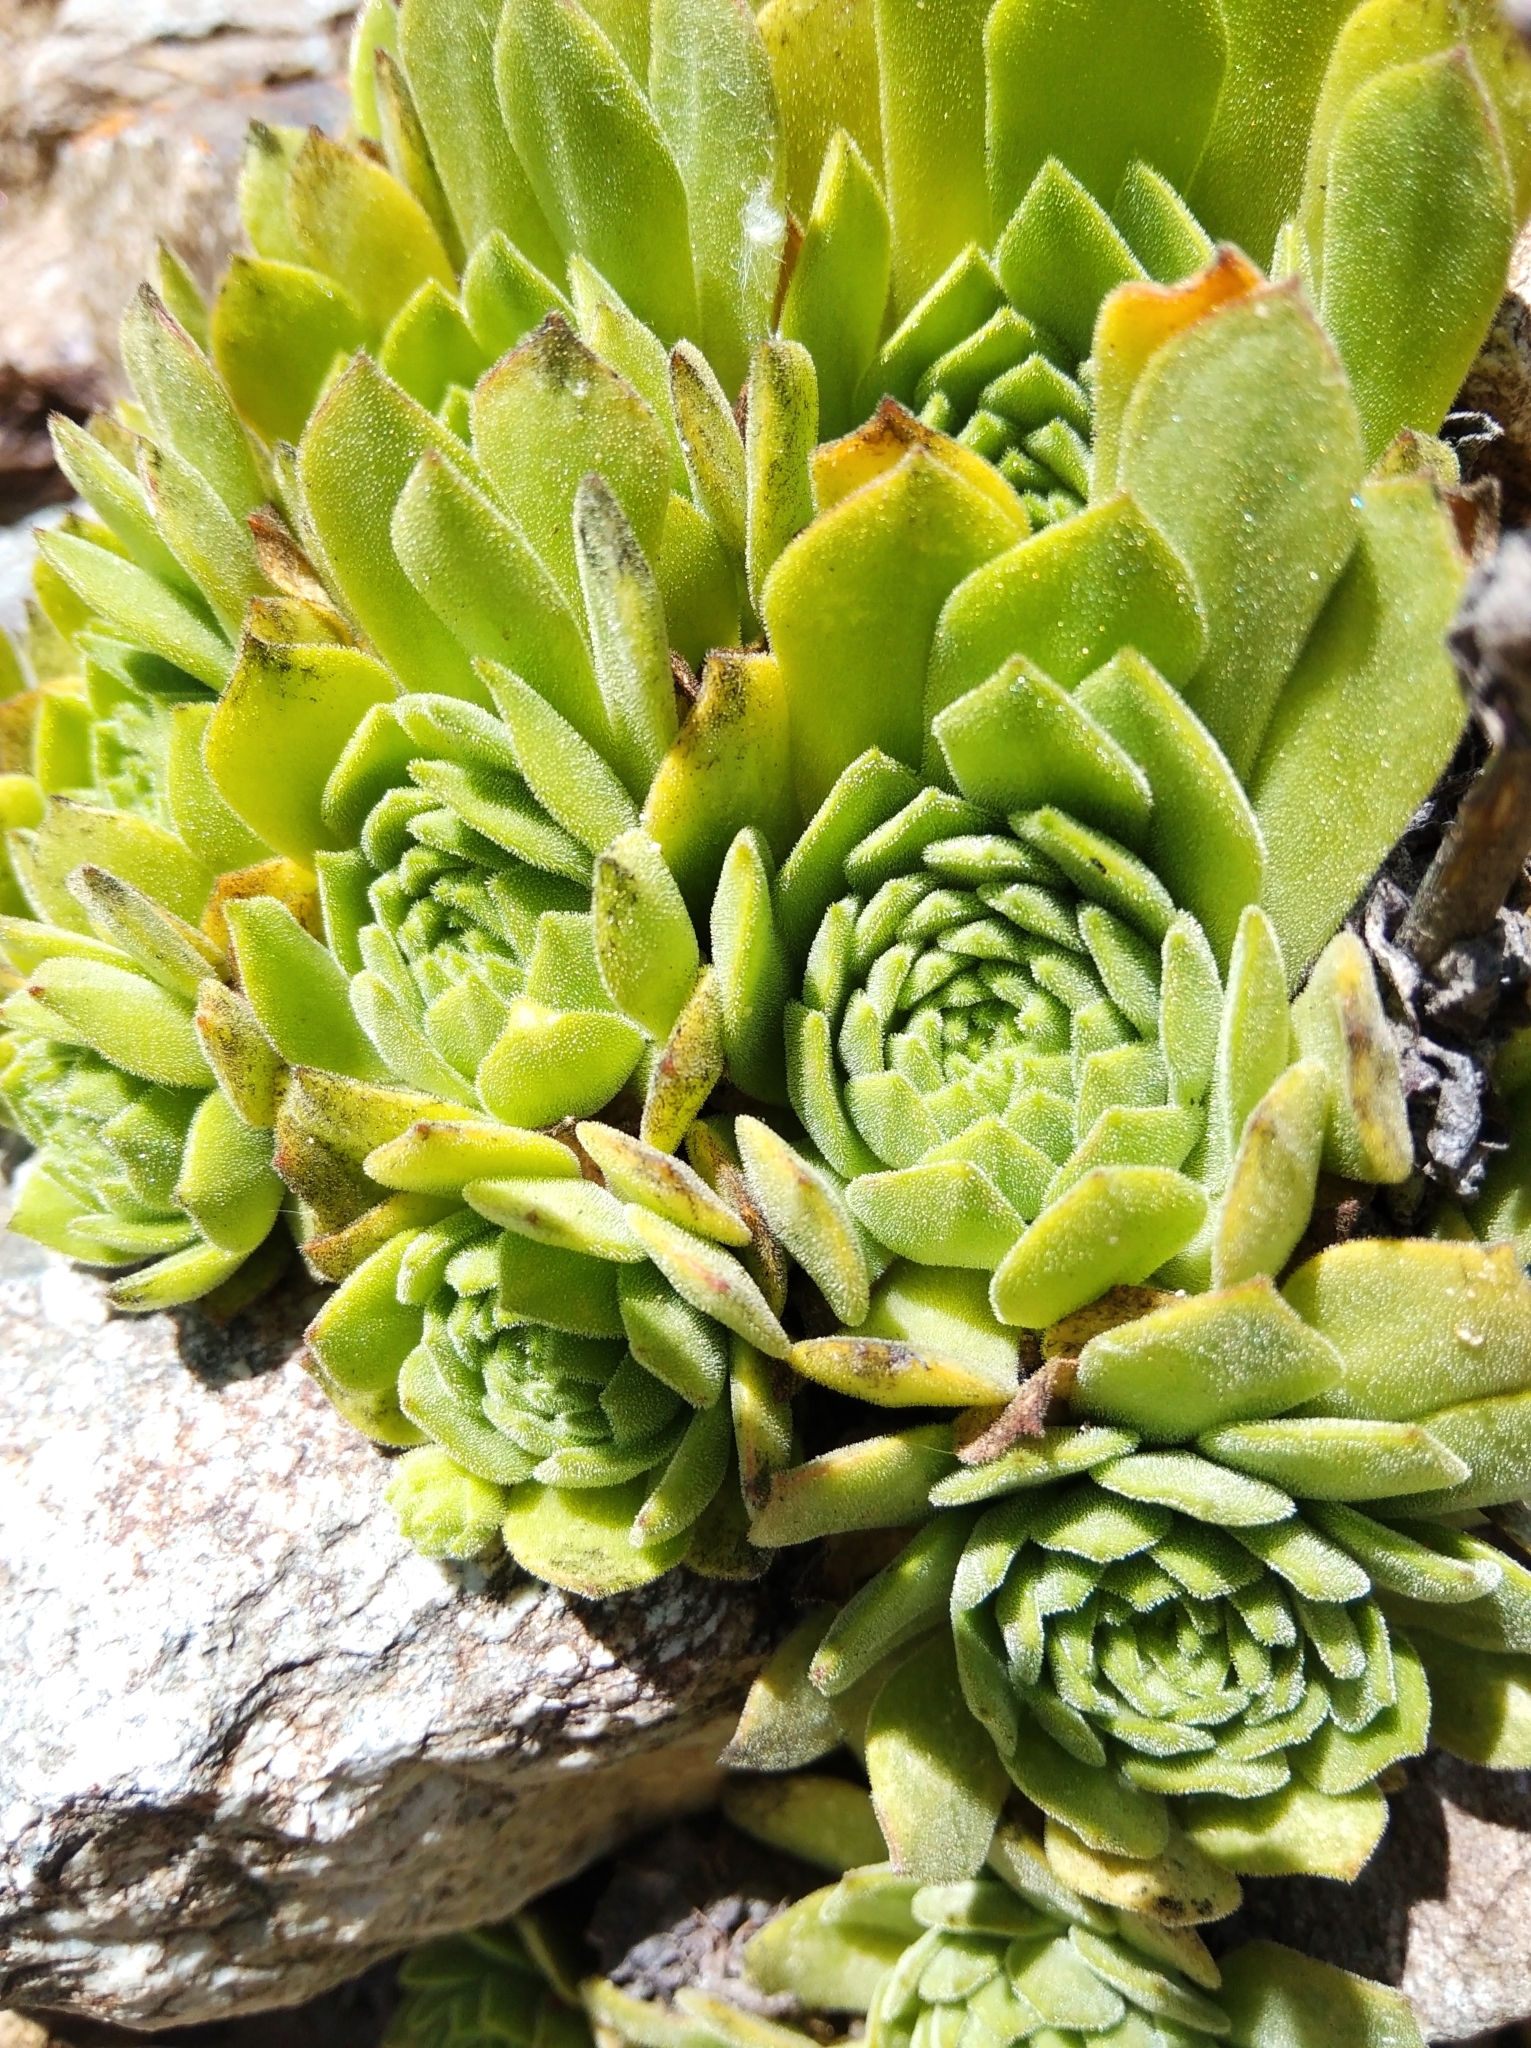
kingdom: Plantae
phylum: Tracheophyta
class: Magnoliopsida
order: Saxifragales
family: Crassulaceae
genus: Sempervivum
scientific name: Sempervivum montanum
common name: Mountain house-leek
